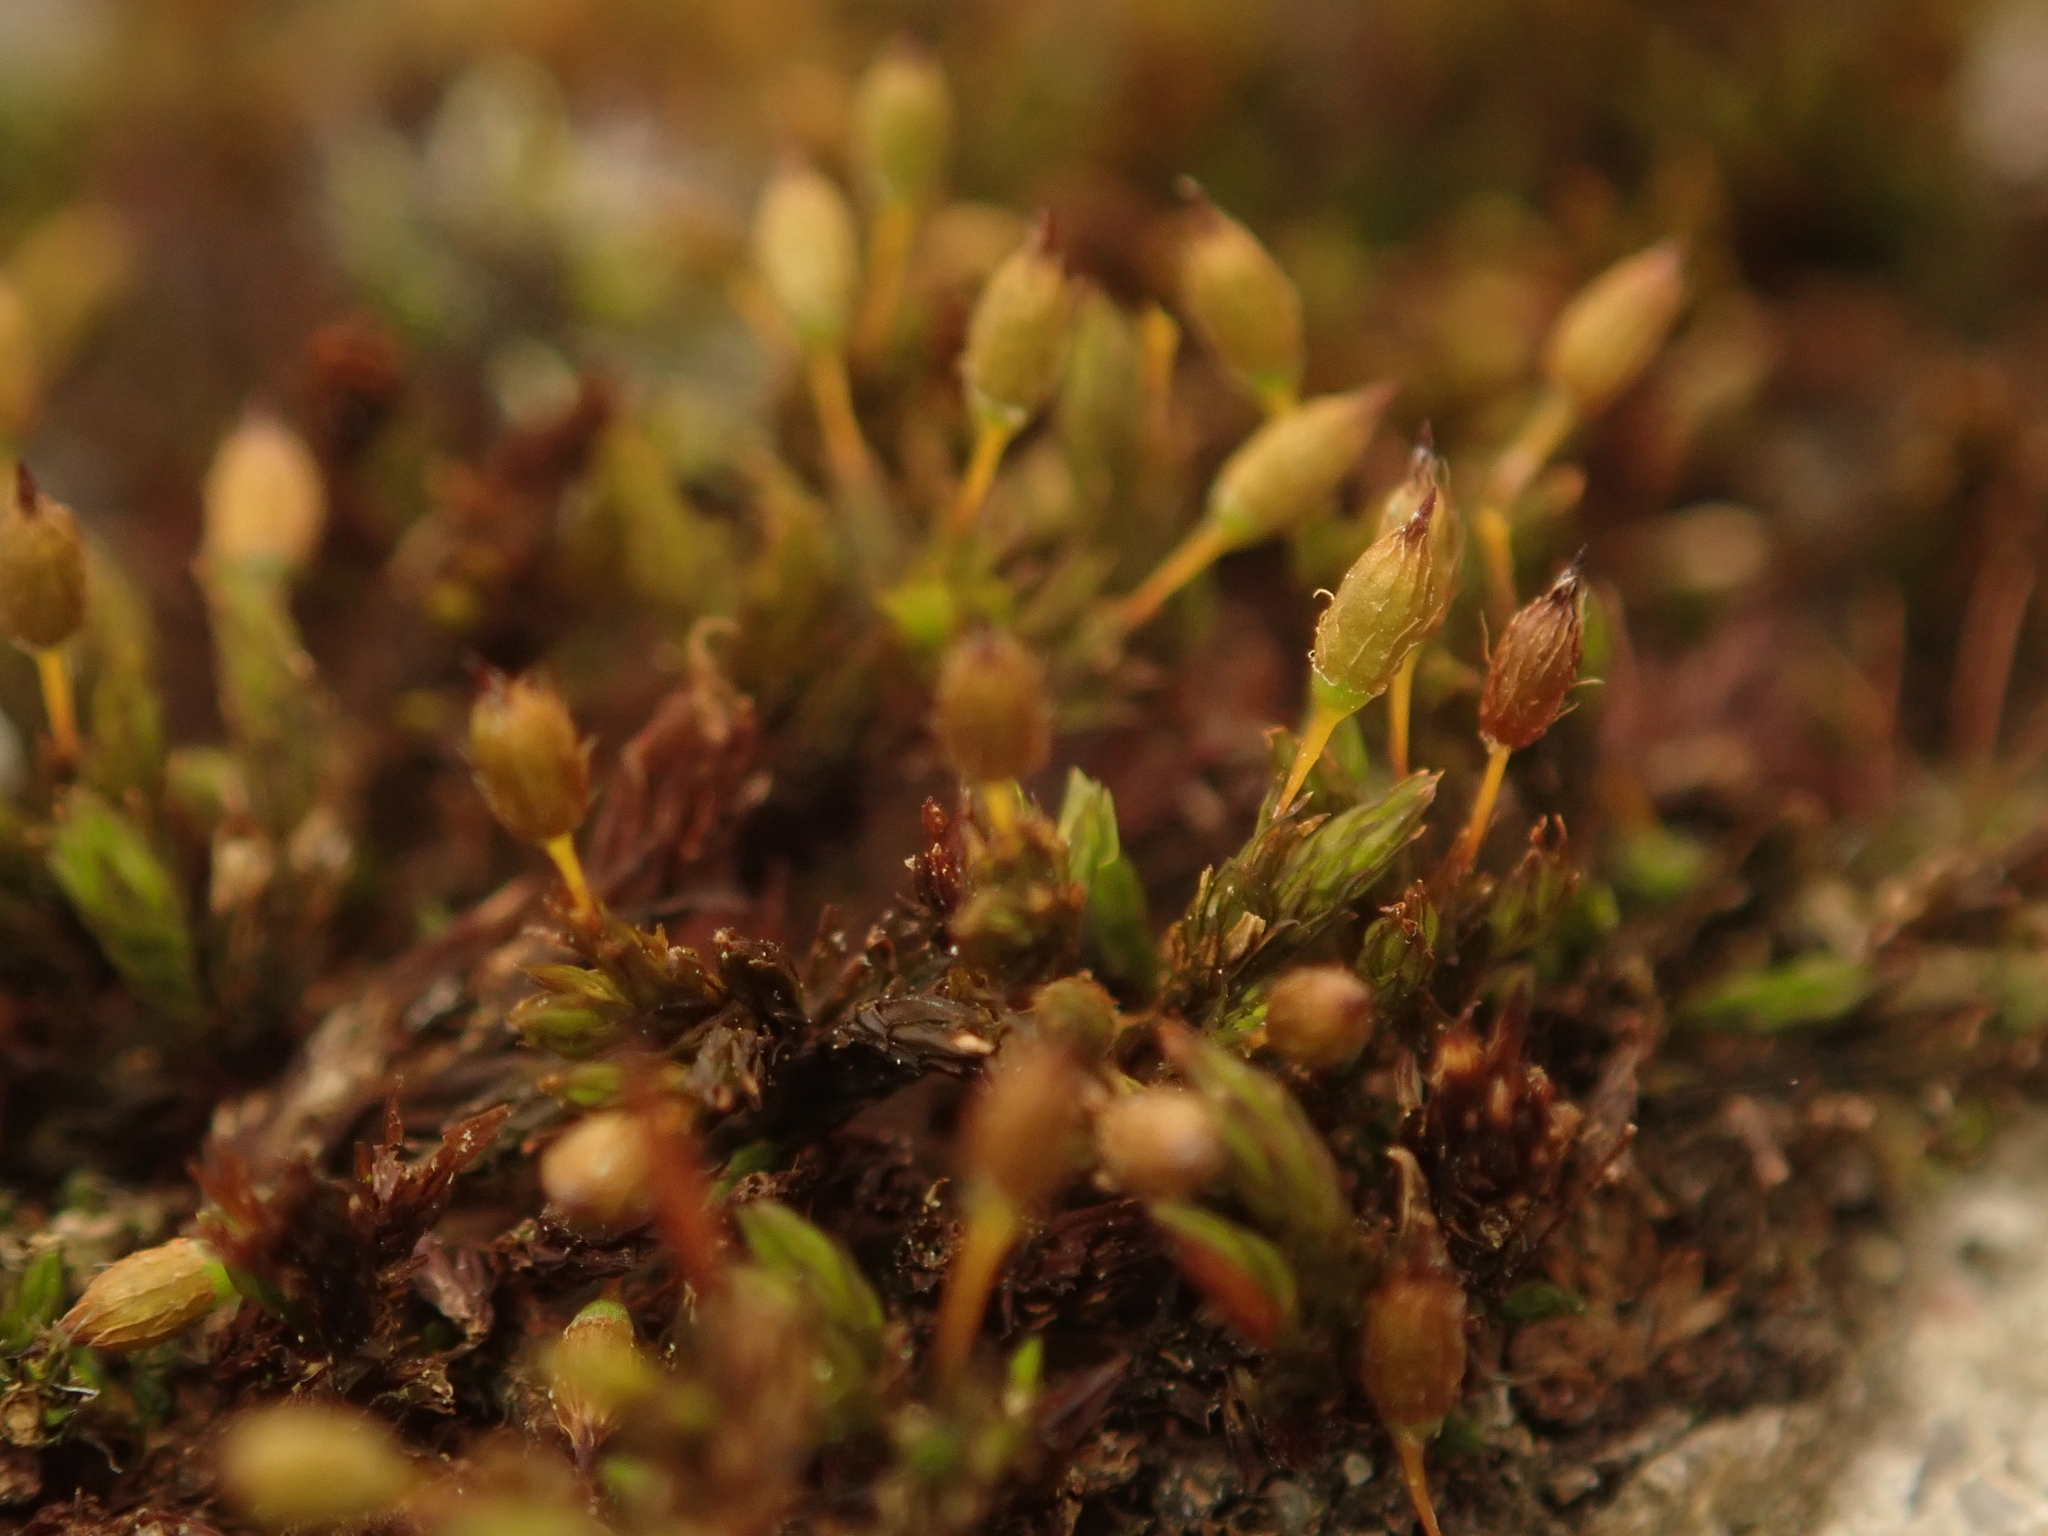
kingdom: Plantae
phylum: Bryophyta
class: Bryopsida
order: Orthotrichales
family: Orthotrichaceae
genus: Orthotrichum
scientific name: Orthotrichum anomalum
